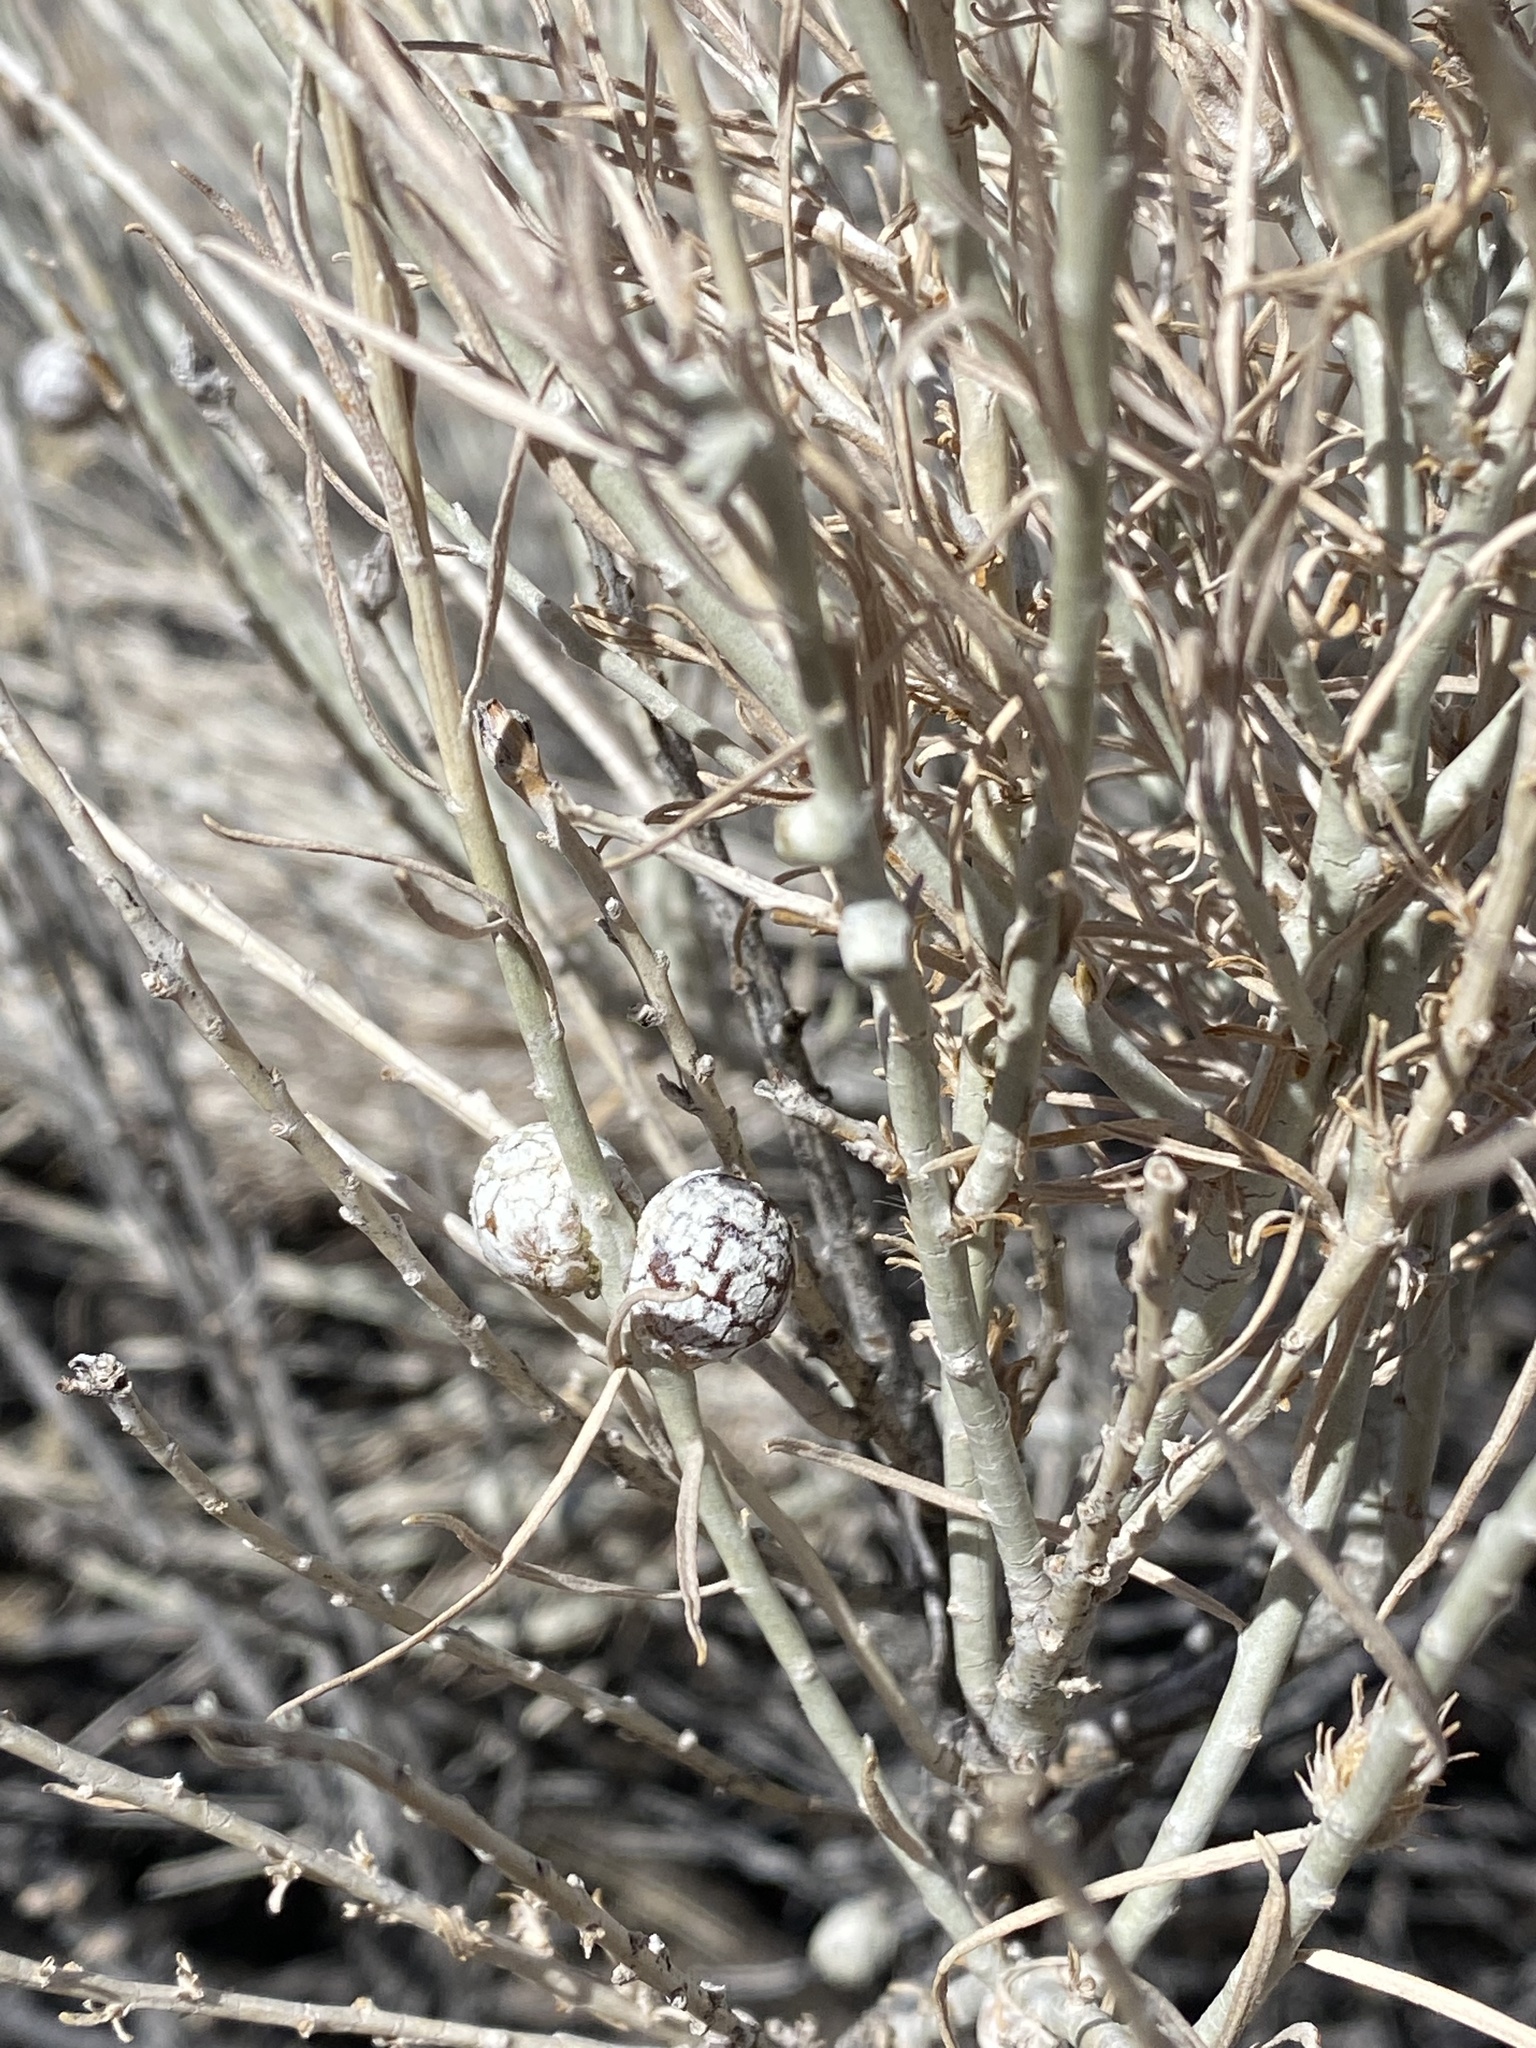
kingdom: Animalia
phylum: Arthropoda
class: Insecta
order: Diptera
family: Tephritidae
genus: Aciurina
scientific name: Aciurina trixa
